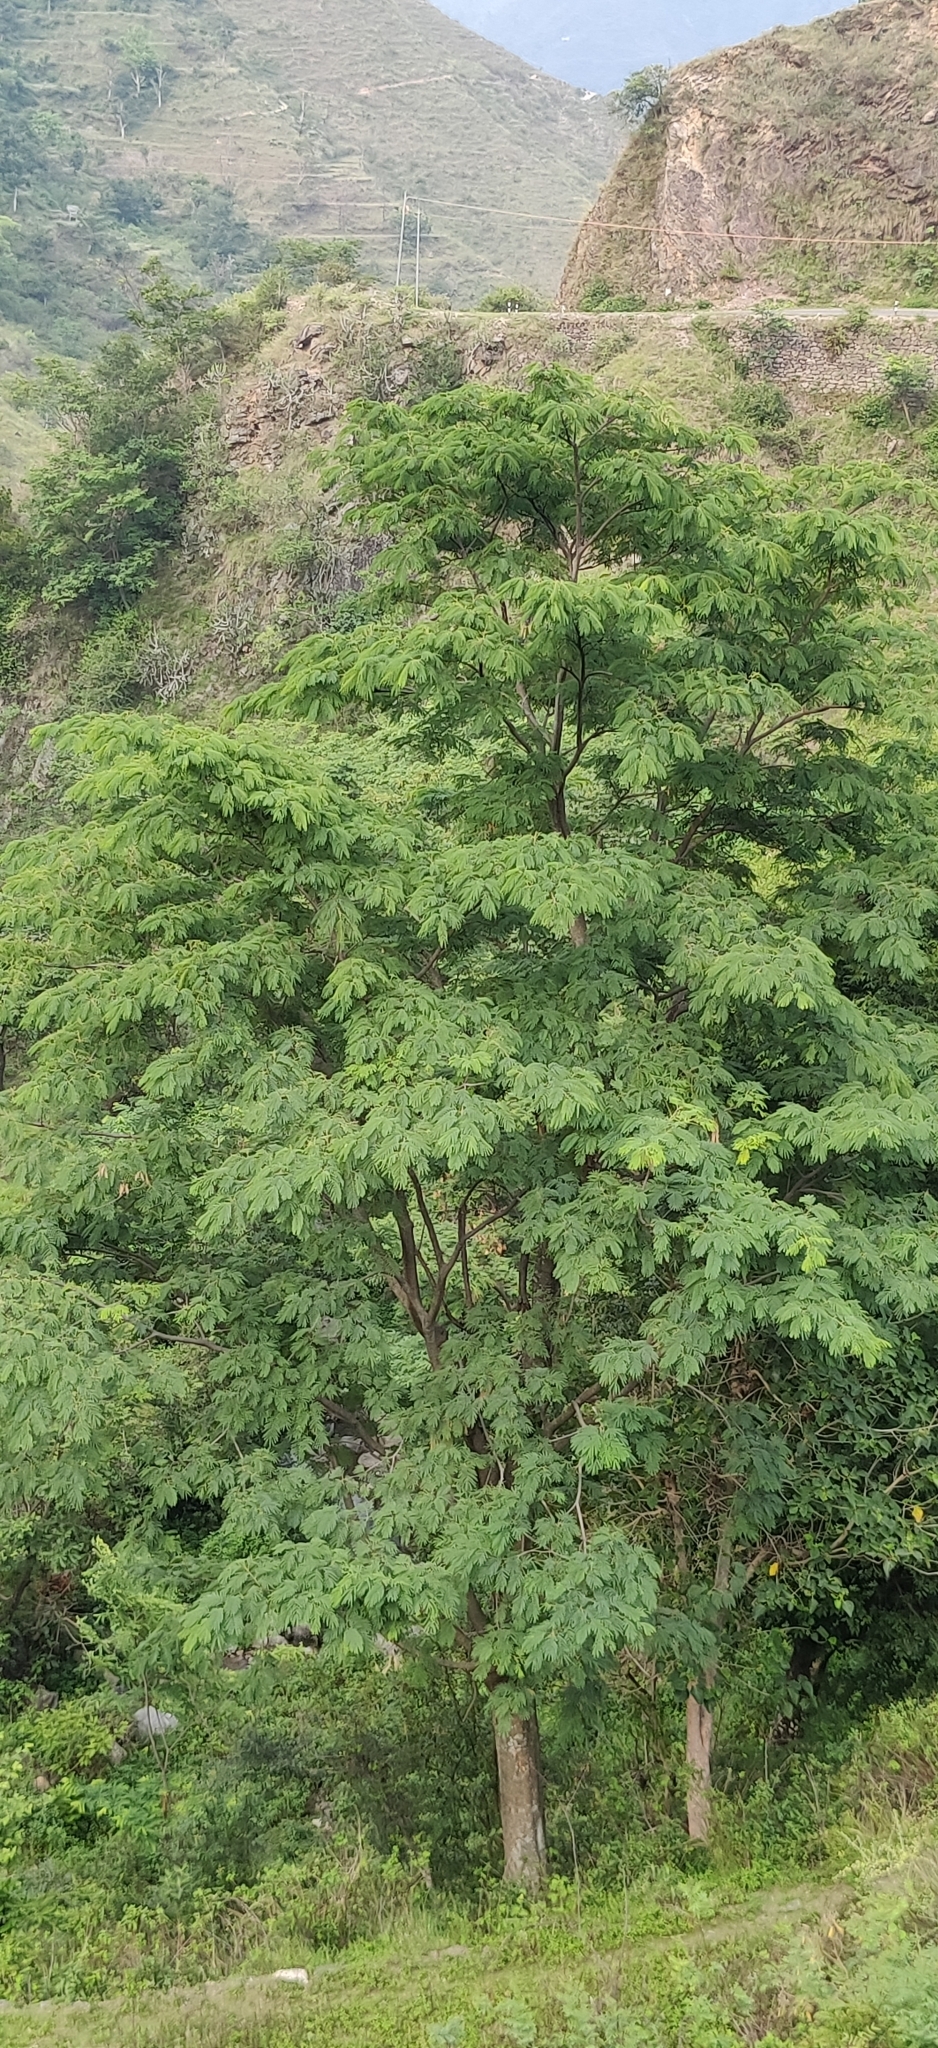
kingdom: Plantae
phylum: Tracheophyta
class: Magnoliopsida
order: Fabales
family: Fabaceae
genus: Albizia
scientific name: Albizia chinensis
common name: Chinese albizia
